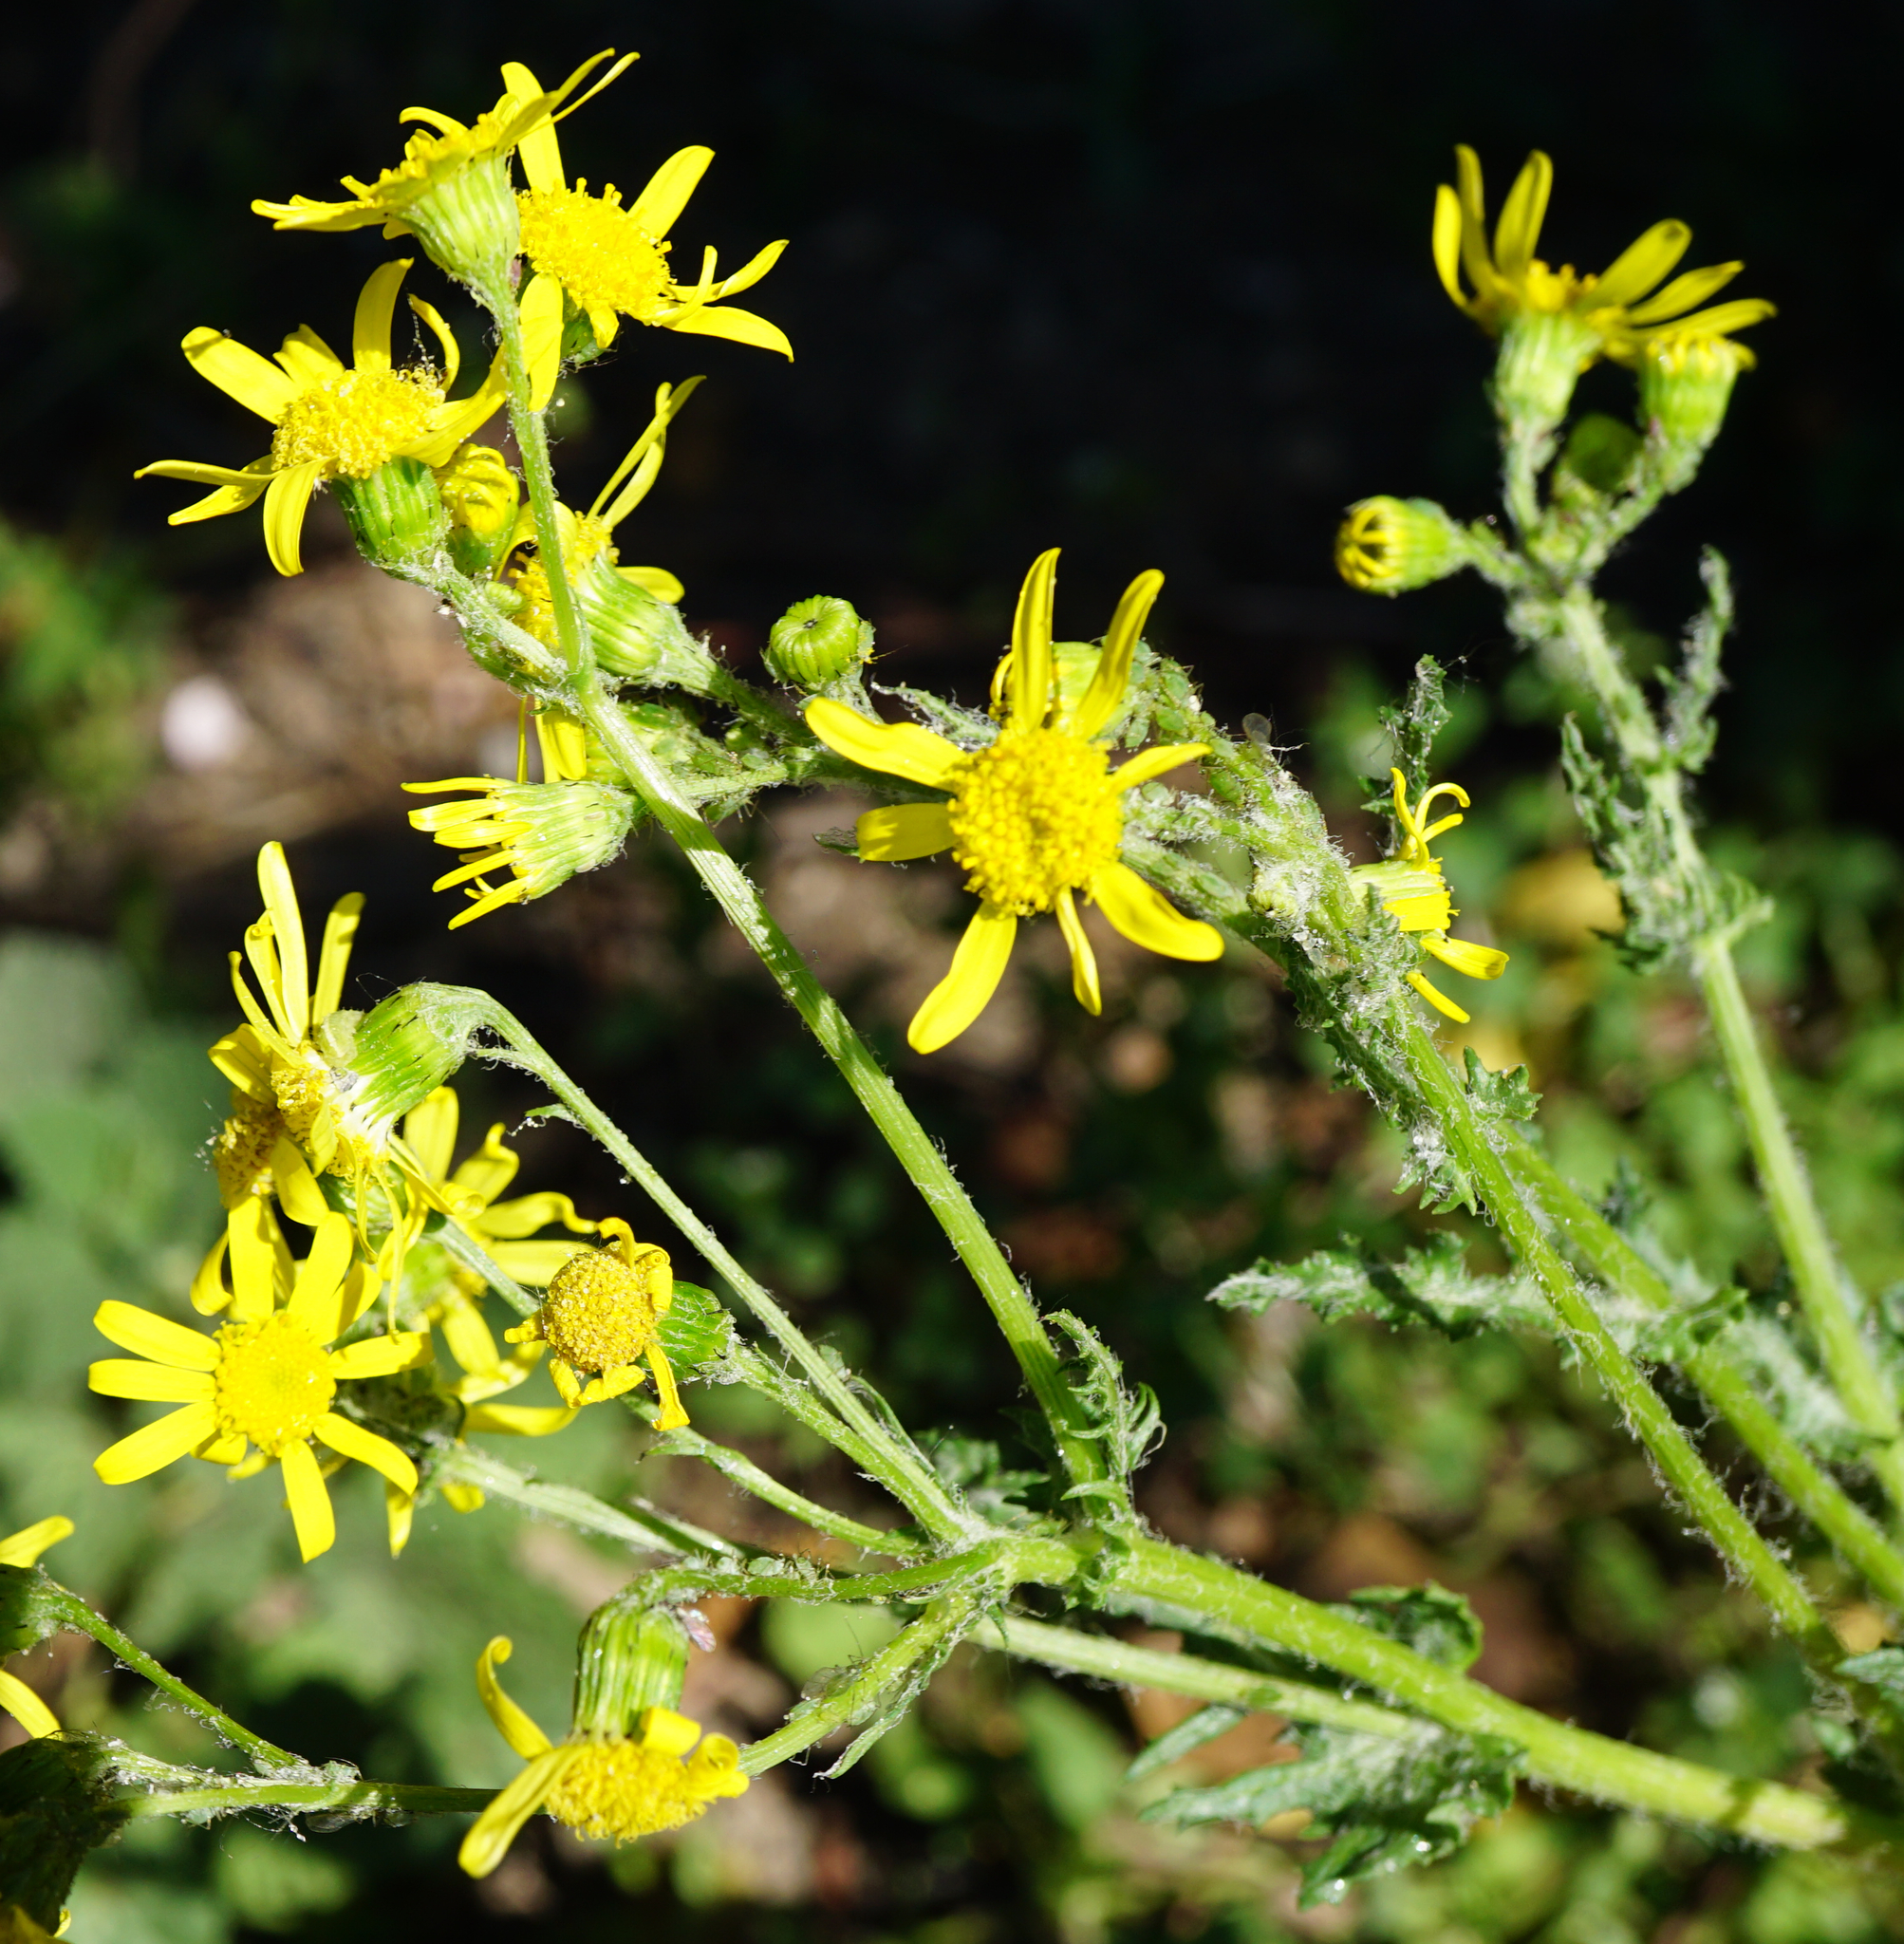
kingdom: Plantae
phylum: Tracheophyta
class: Magnoliopsida
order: Asterales
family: Asteraceae
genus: Senecio
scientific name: Senecio vernalis
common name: Eastern groundsel
